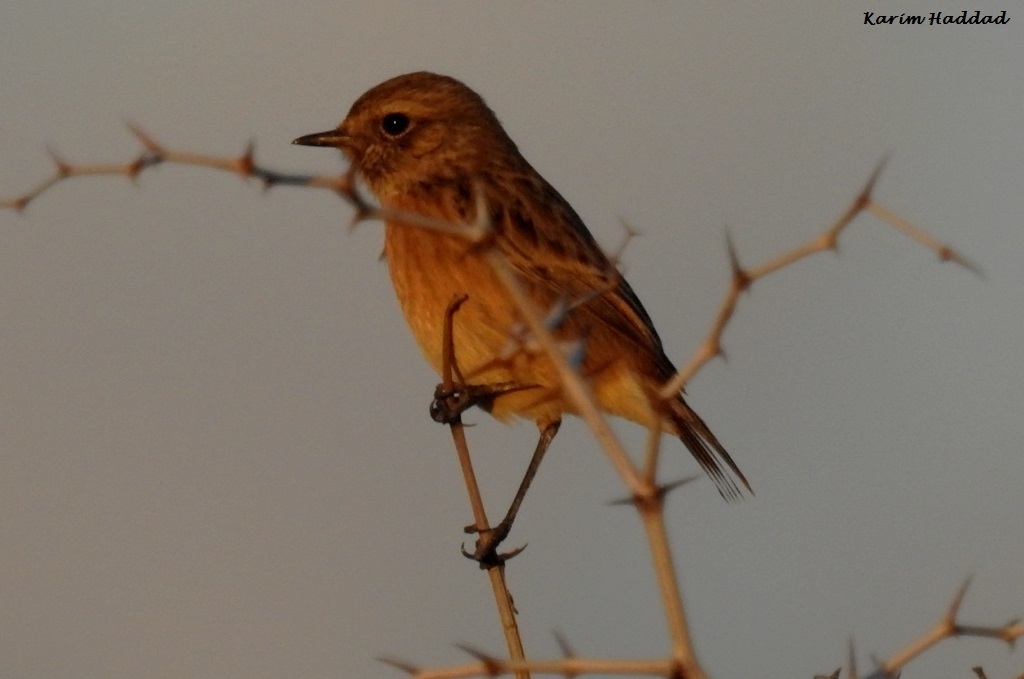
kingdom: Animalia
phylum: Chordata
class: Aves
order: Passeriformes
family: Muscicapidae
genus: Saxicola
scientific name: Saxicola rubicola
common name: European stonechat
